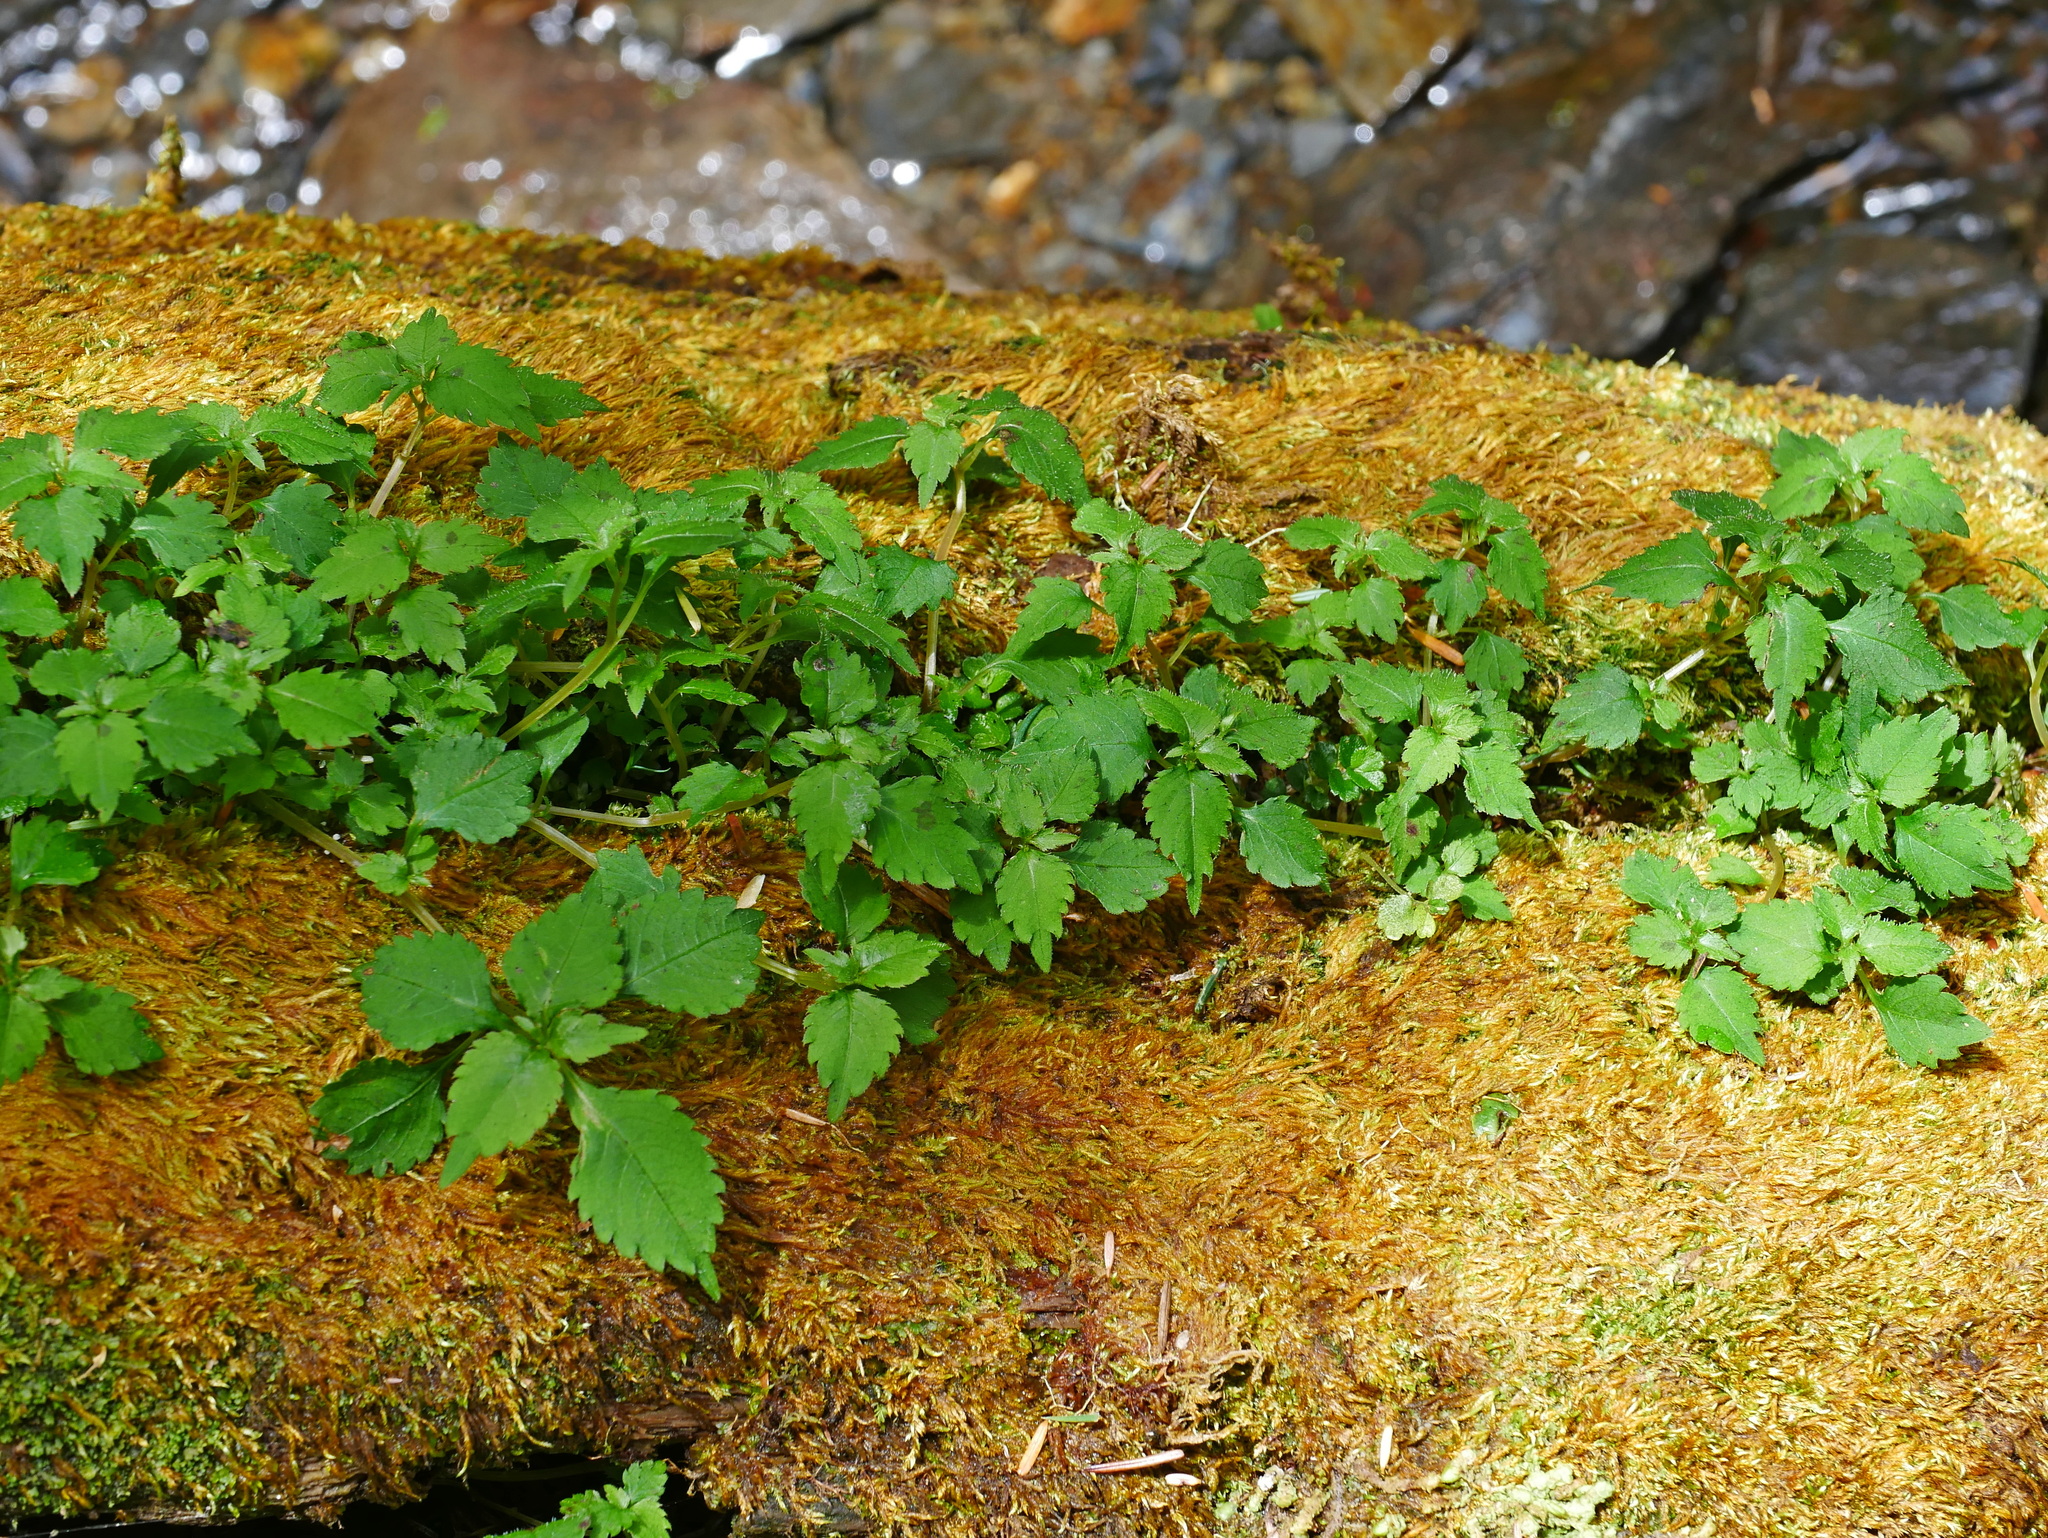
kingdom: Plantae
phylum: Tracheophyta
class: Magnoliopsida
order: Ericales
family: Balsaminaceae
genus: Impatiens
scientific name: Impatiens uniflora
